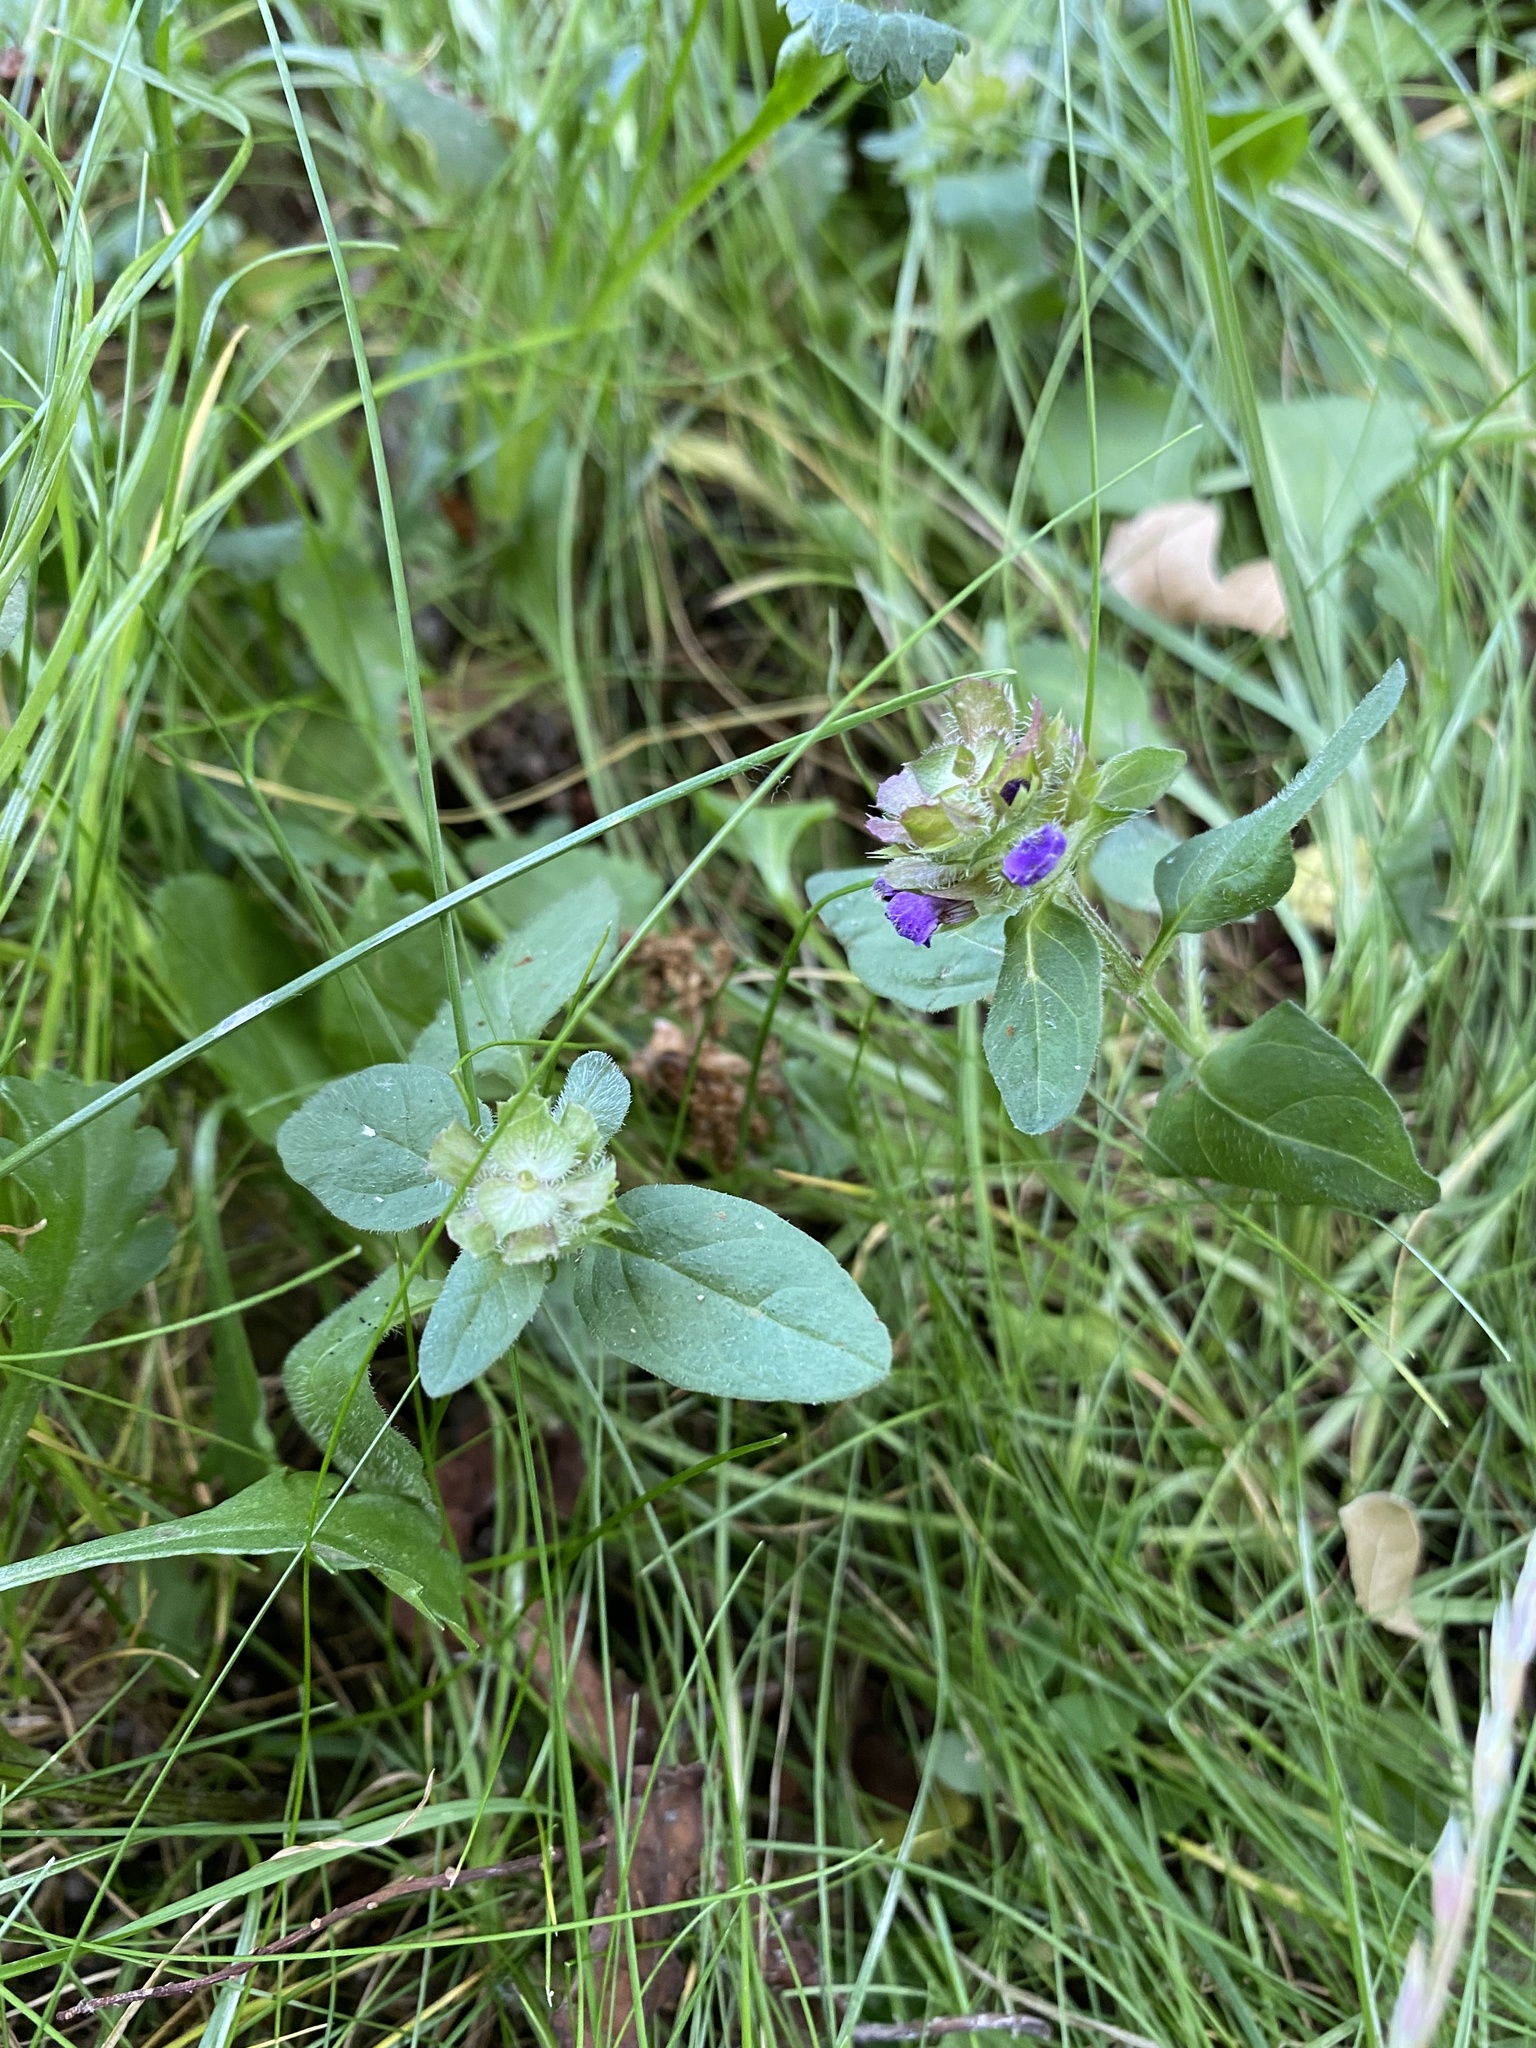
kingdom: Plantae
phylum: Tracheophyta
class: Magnoliopsida
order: Lamiales
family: Lamiaceae
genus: Prunella
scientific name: Prunella vulgaris
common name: Heal-all
